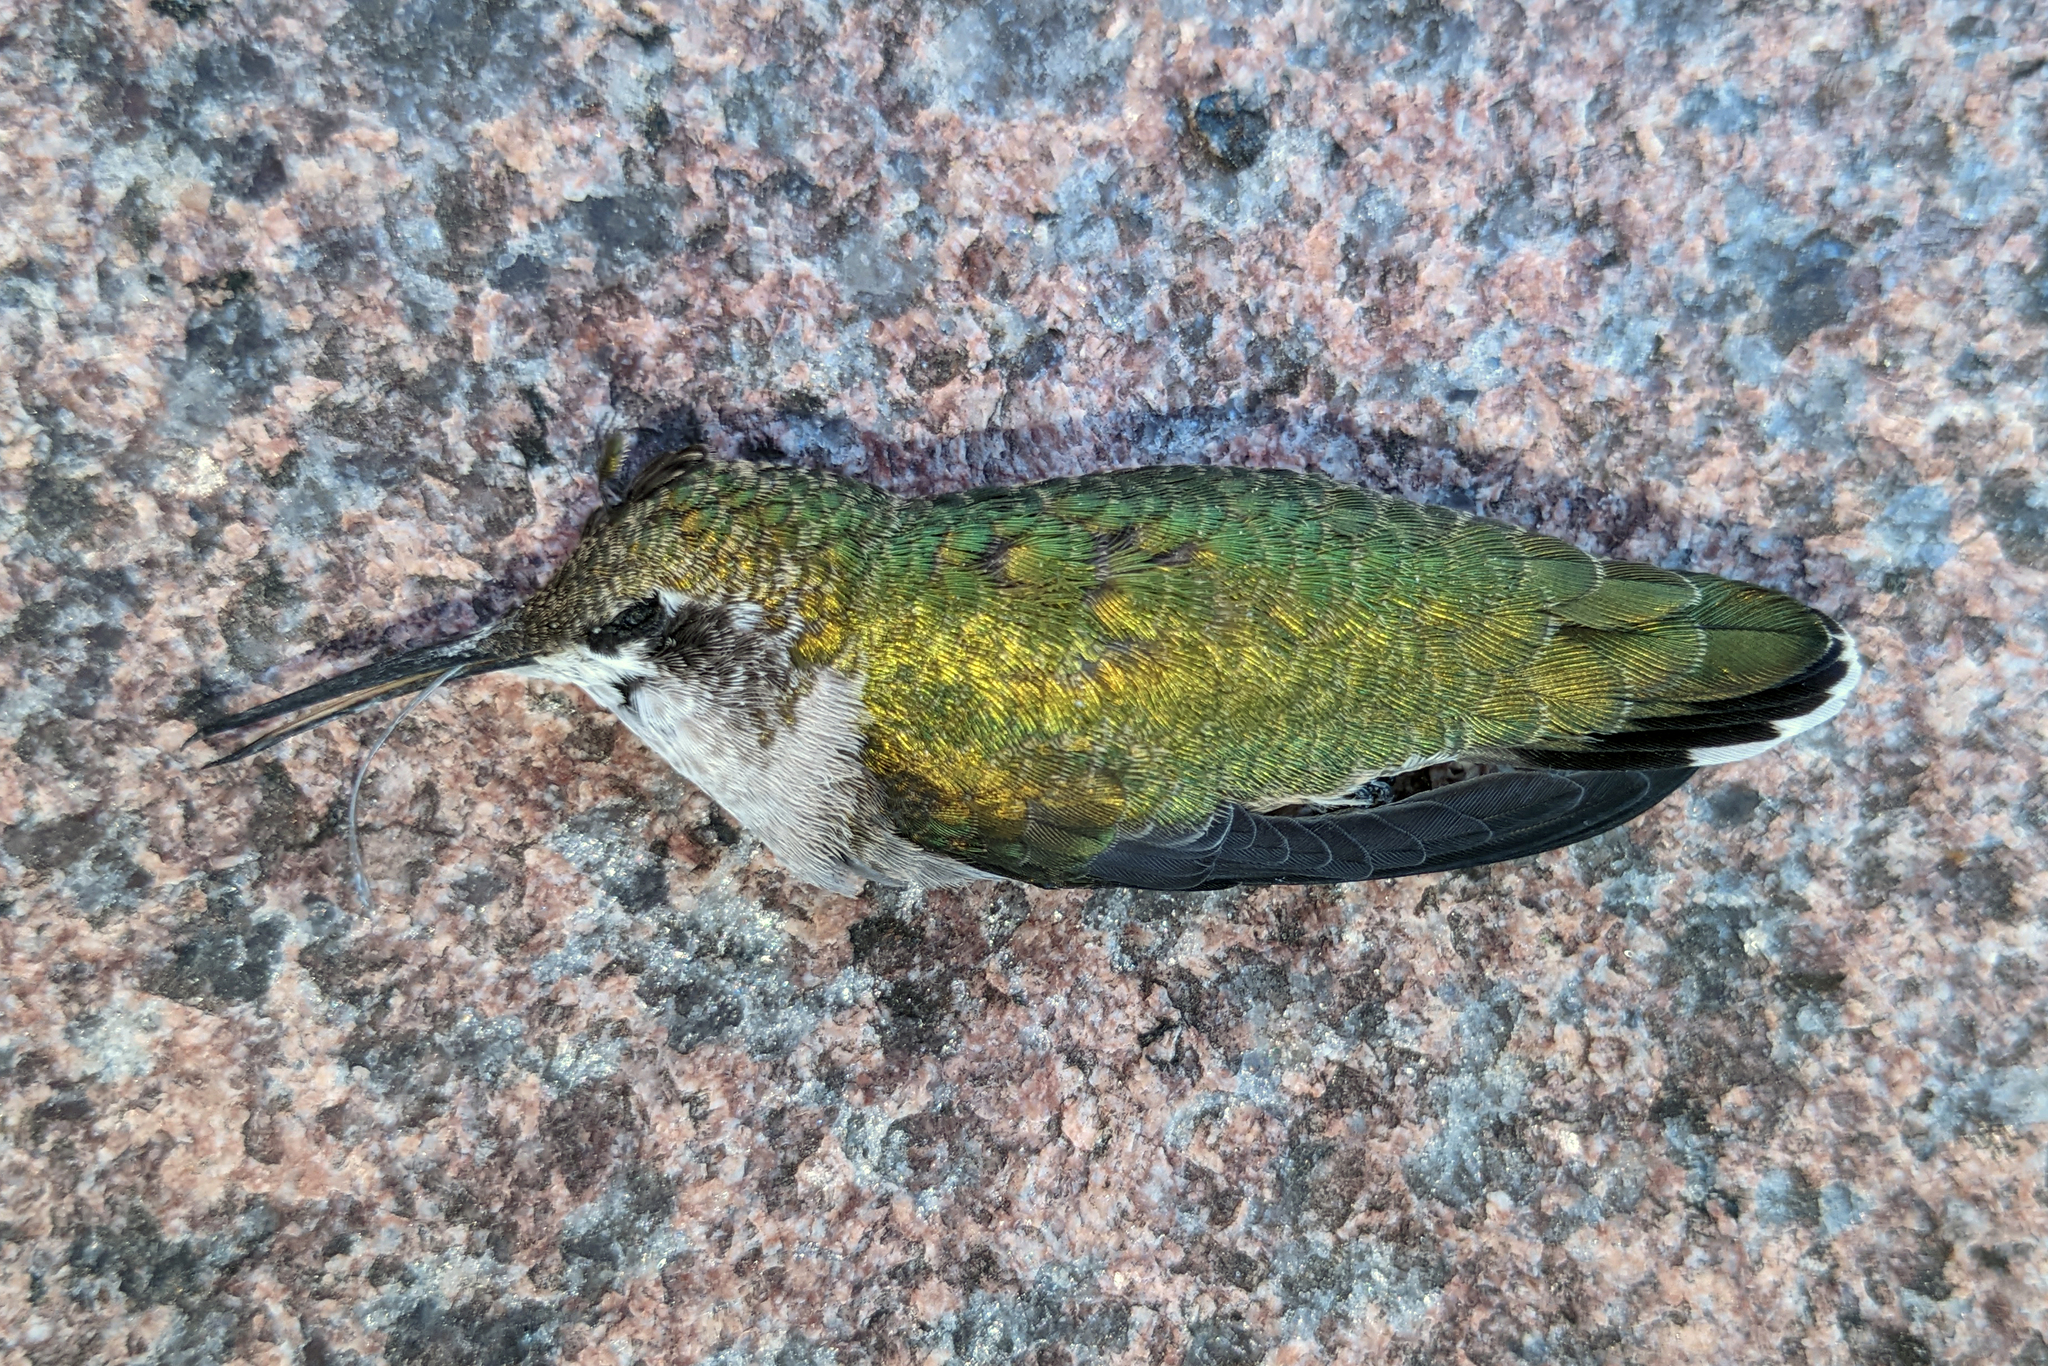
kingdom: Animalia
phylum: Chordata
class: Aves
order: Apodiformes
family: Trochilidae
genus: Archilochus
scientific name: Archilochus colubris
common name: Ruby-throated hummingbird
